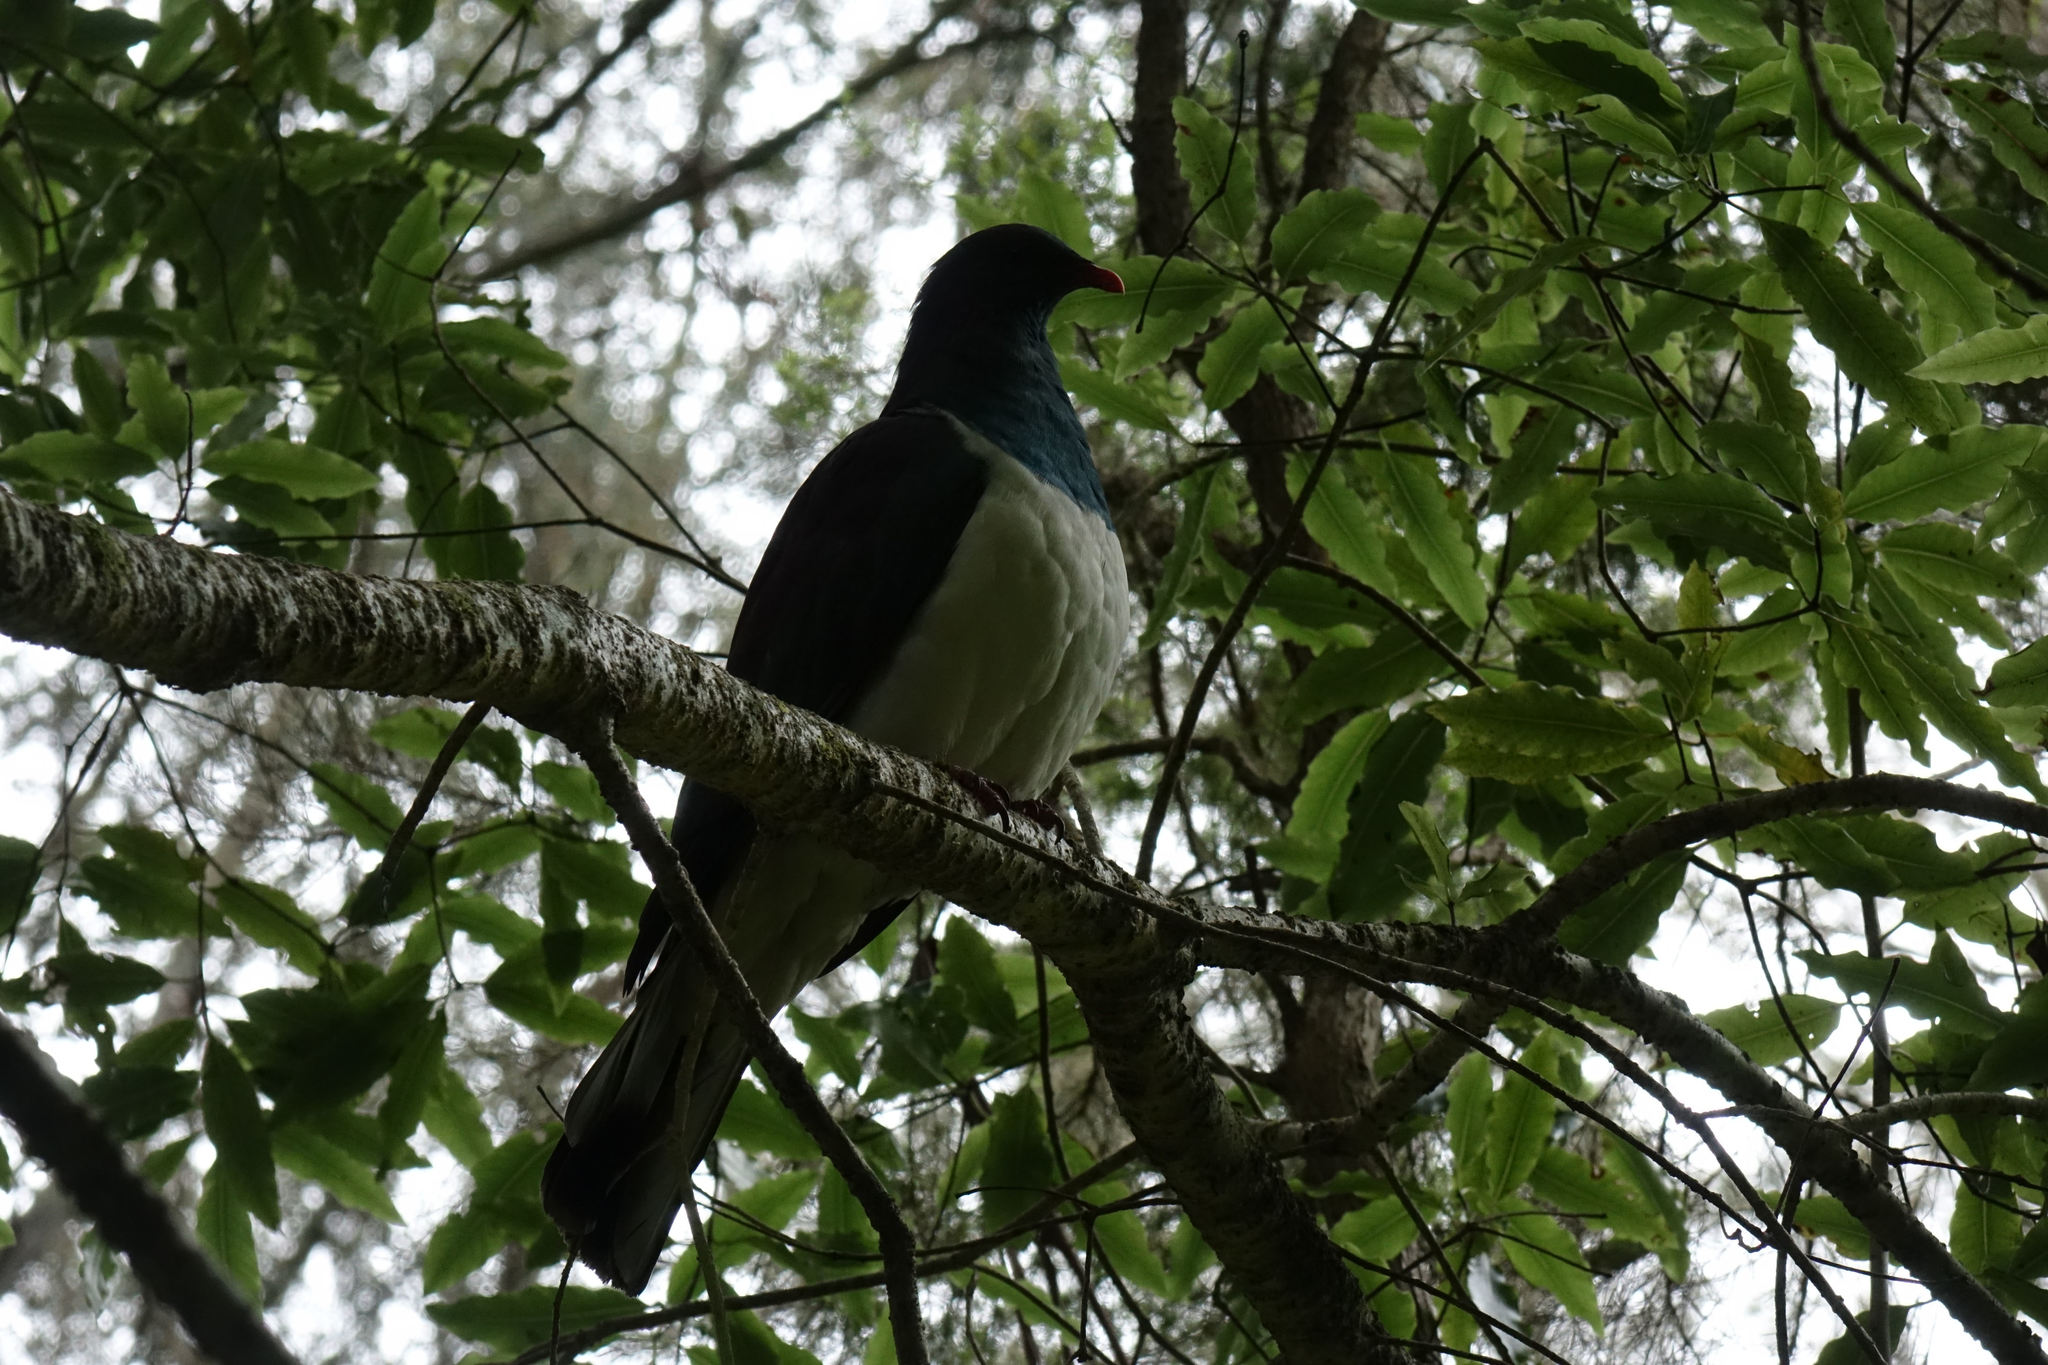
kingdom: Animalia
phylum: Chordata
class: Aves
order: Columbiformes
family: Columbidae
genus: Hemiphaga
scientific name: Hemiphaga novaeseelandiae
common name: New zealand pigeon
